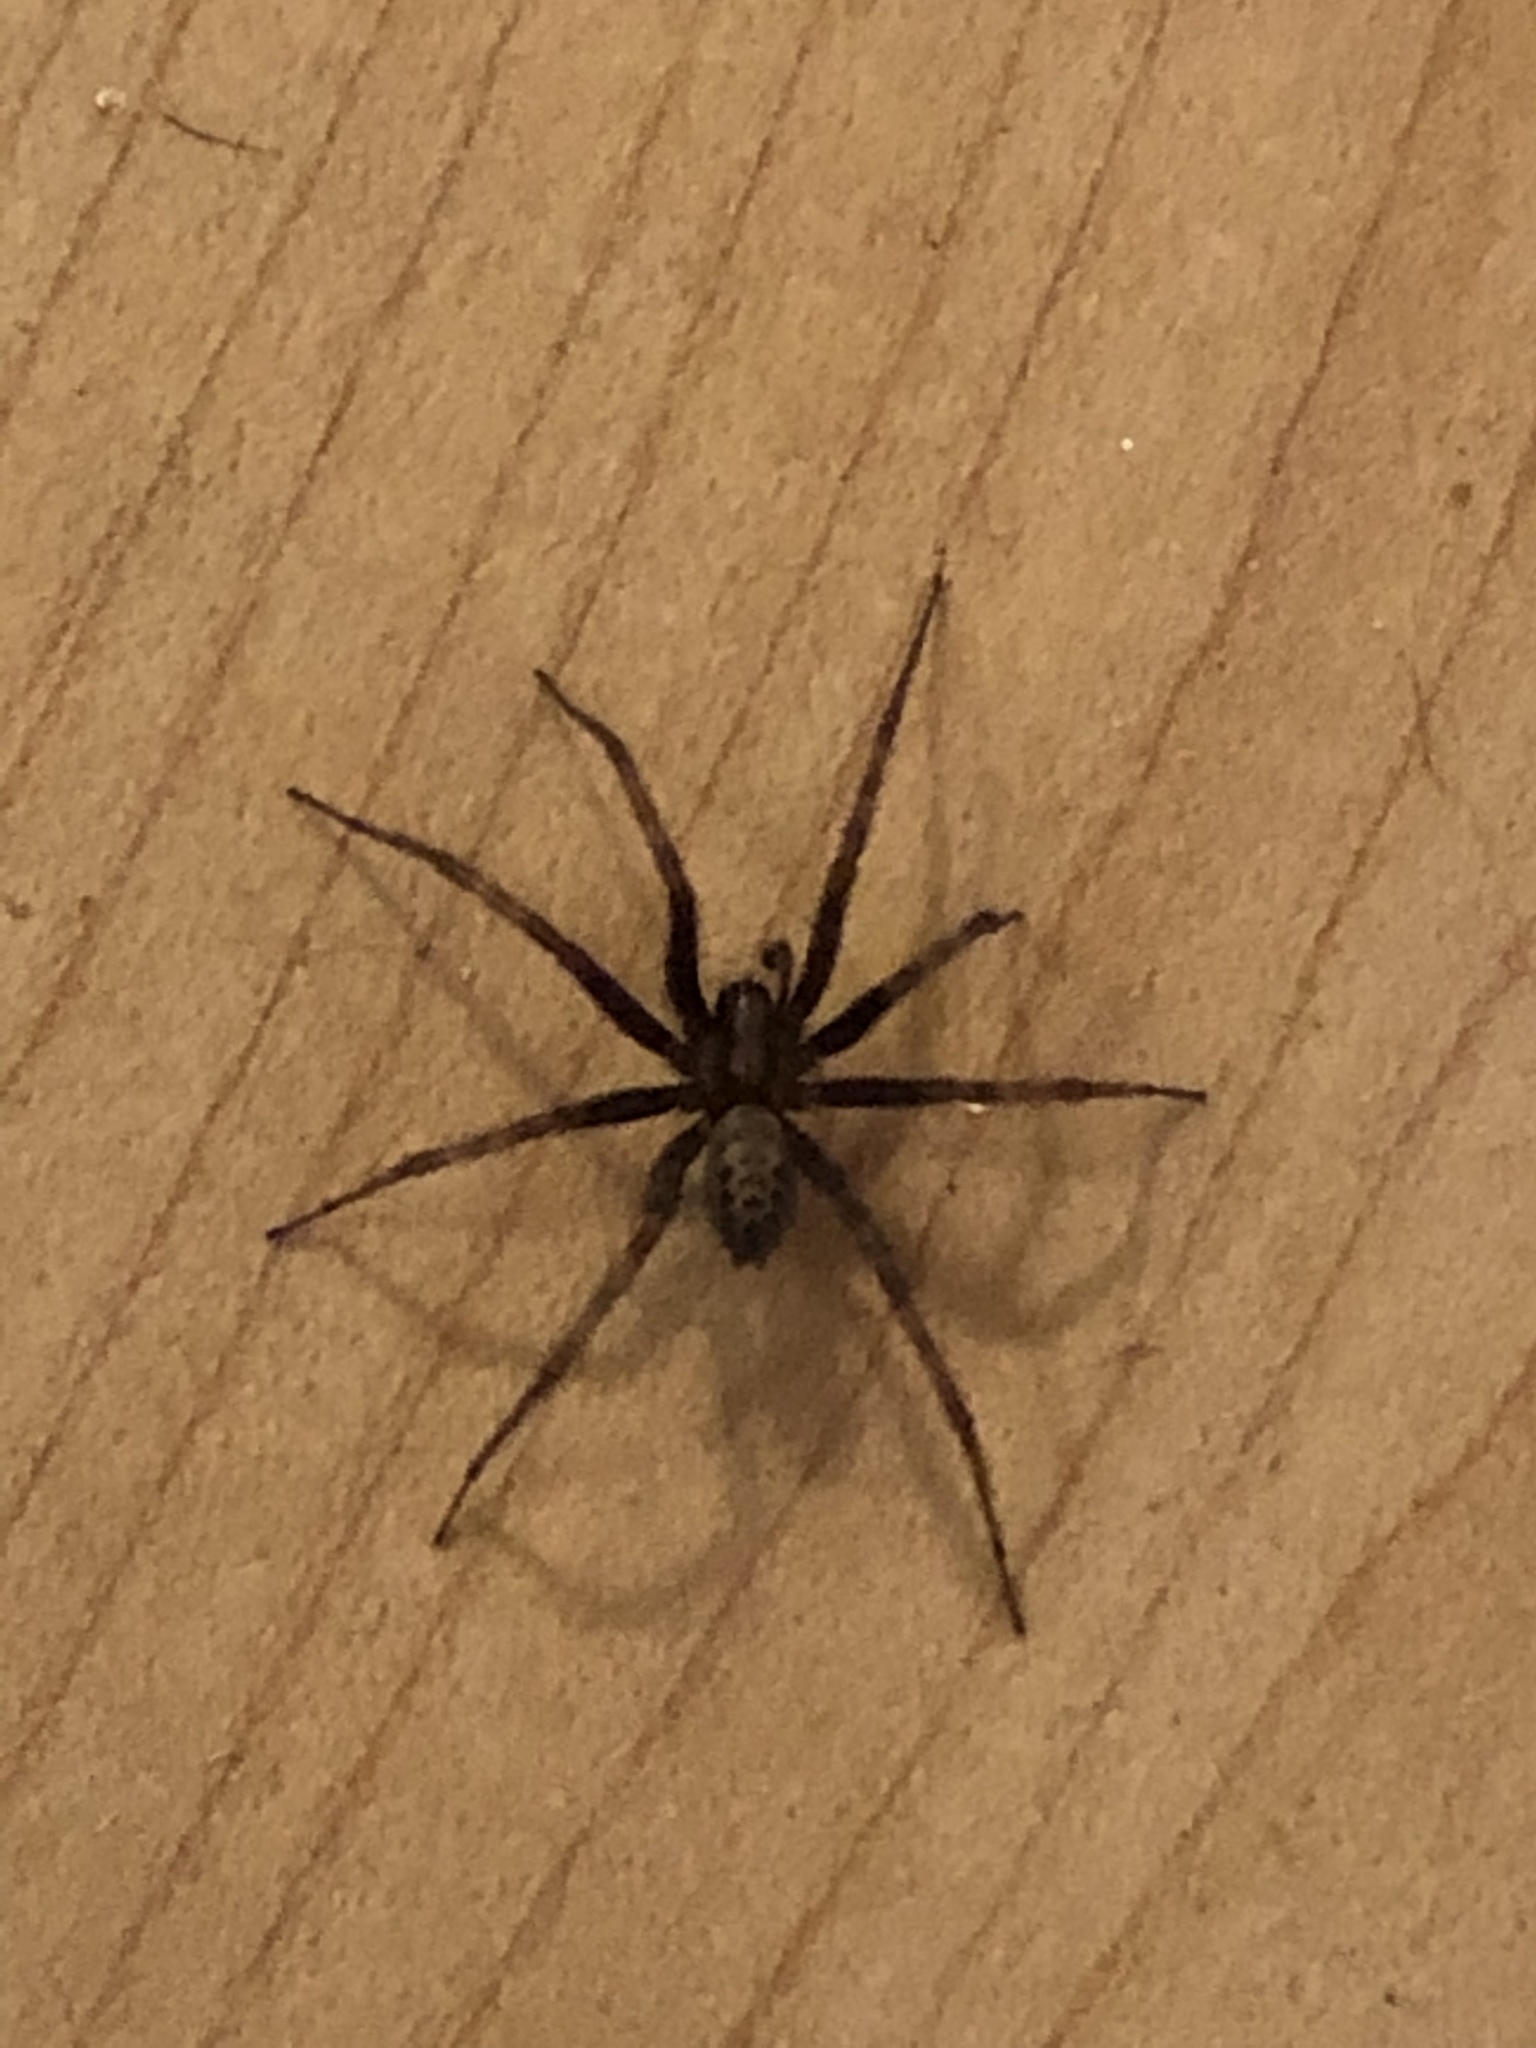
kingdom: Animalia
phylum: Arthropoda
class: Arachnida
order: Araneae
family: Agelenidae
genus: Tegenaria
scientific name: Tegenaria domestica
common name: Barn funnel weaver
